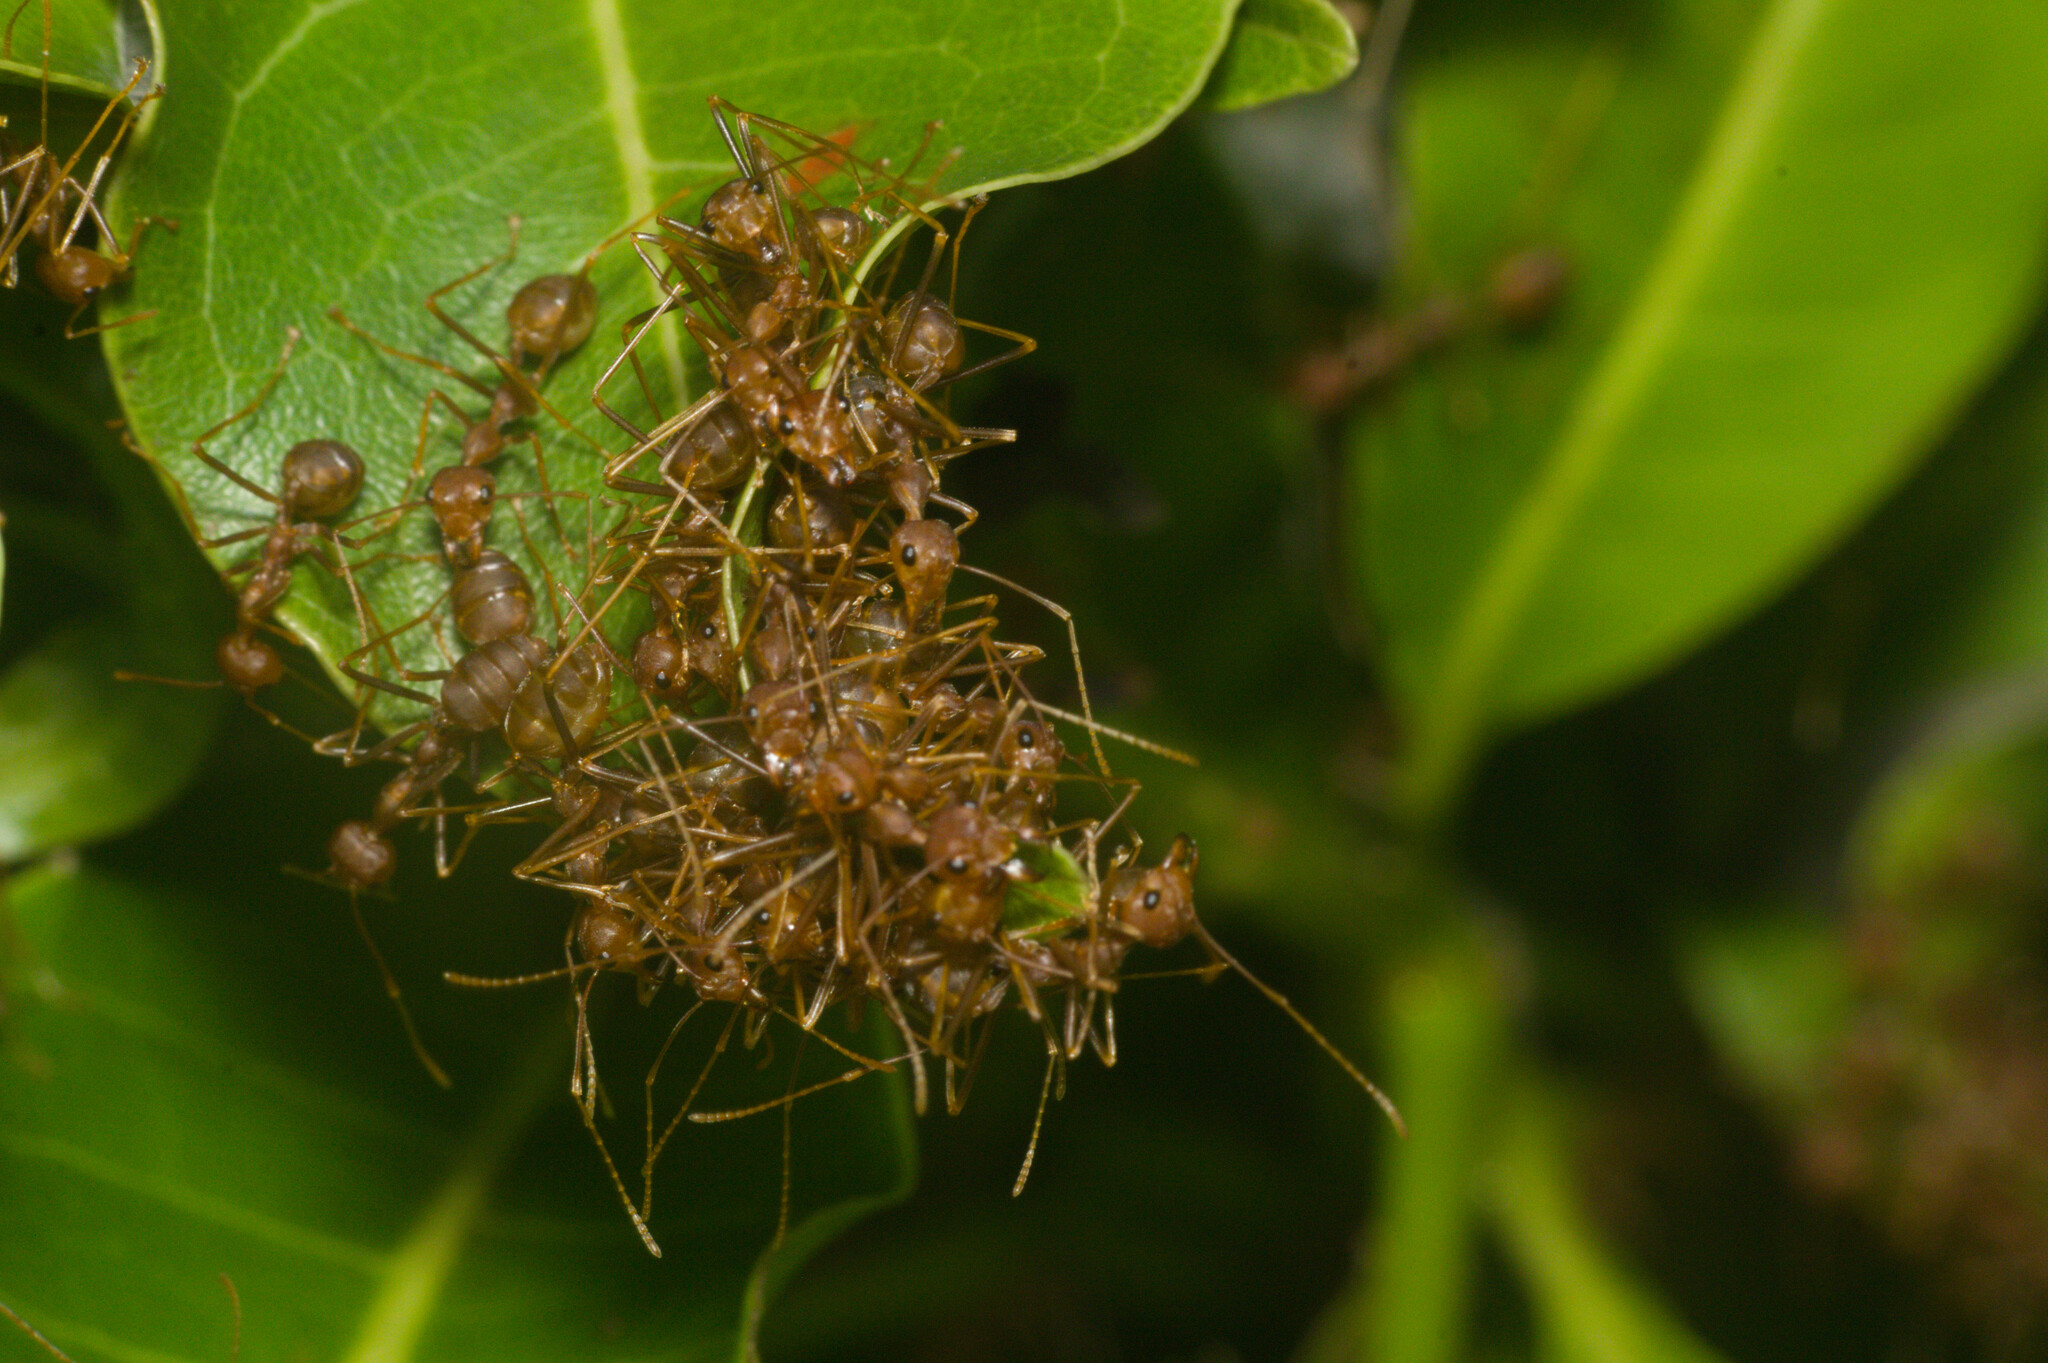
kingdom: Animalia
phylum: Arthropoda
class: Insecta
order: Hymenoptera
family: Formicidae
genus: Oecophylla
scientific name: Oecophylla smaragdina
